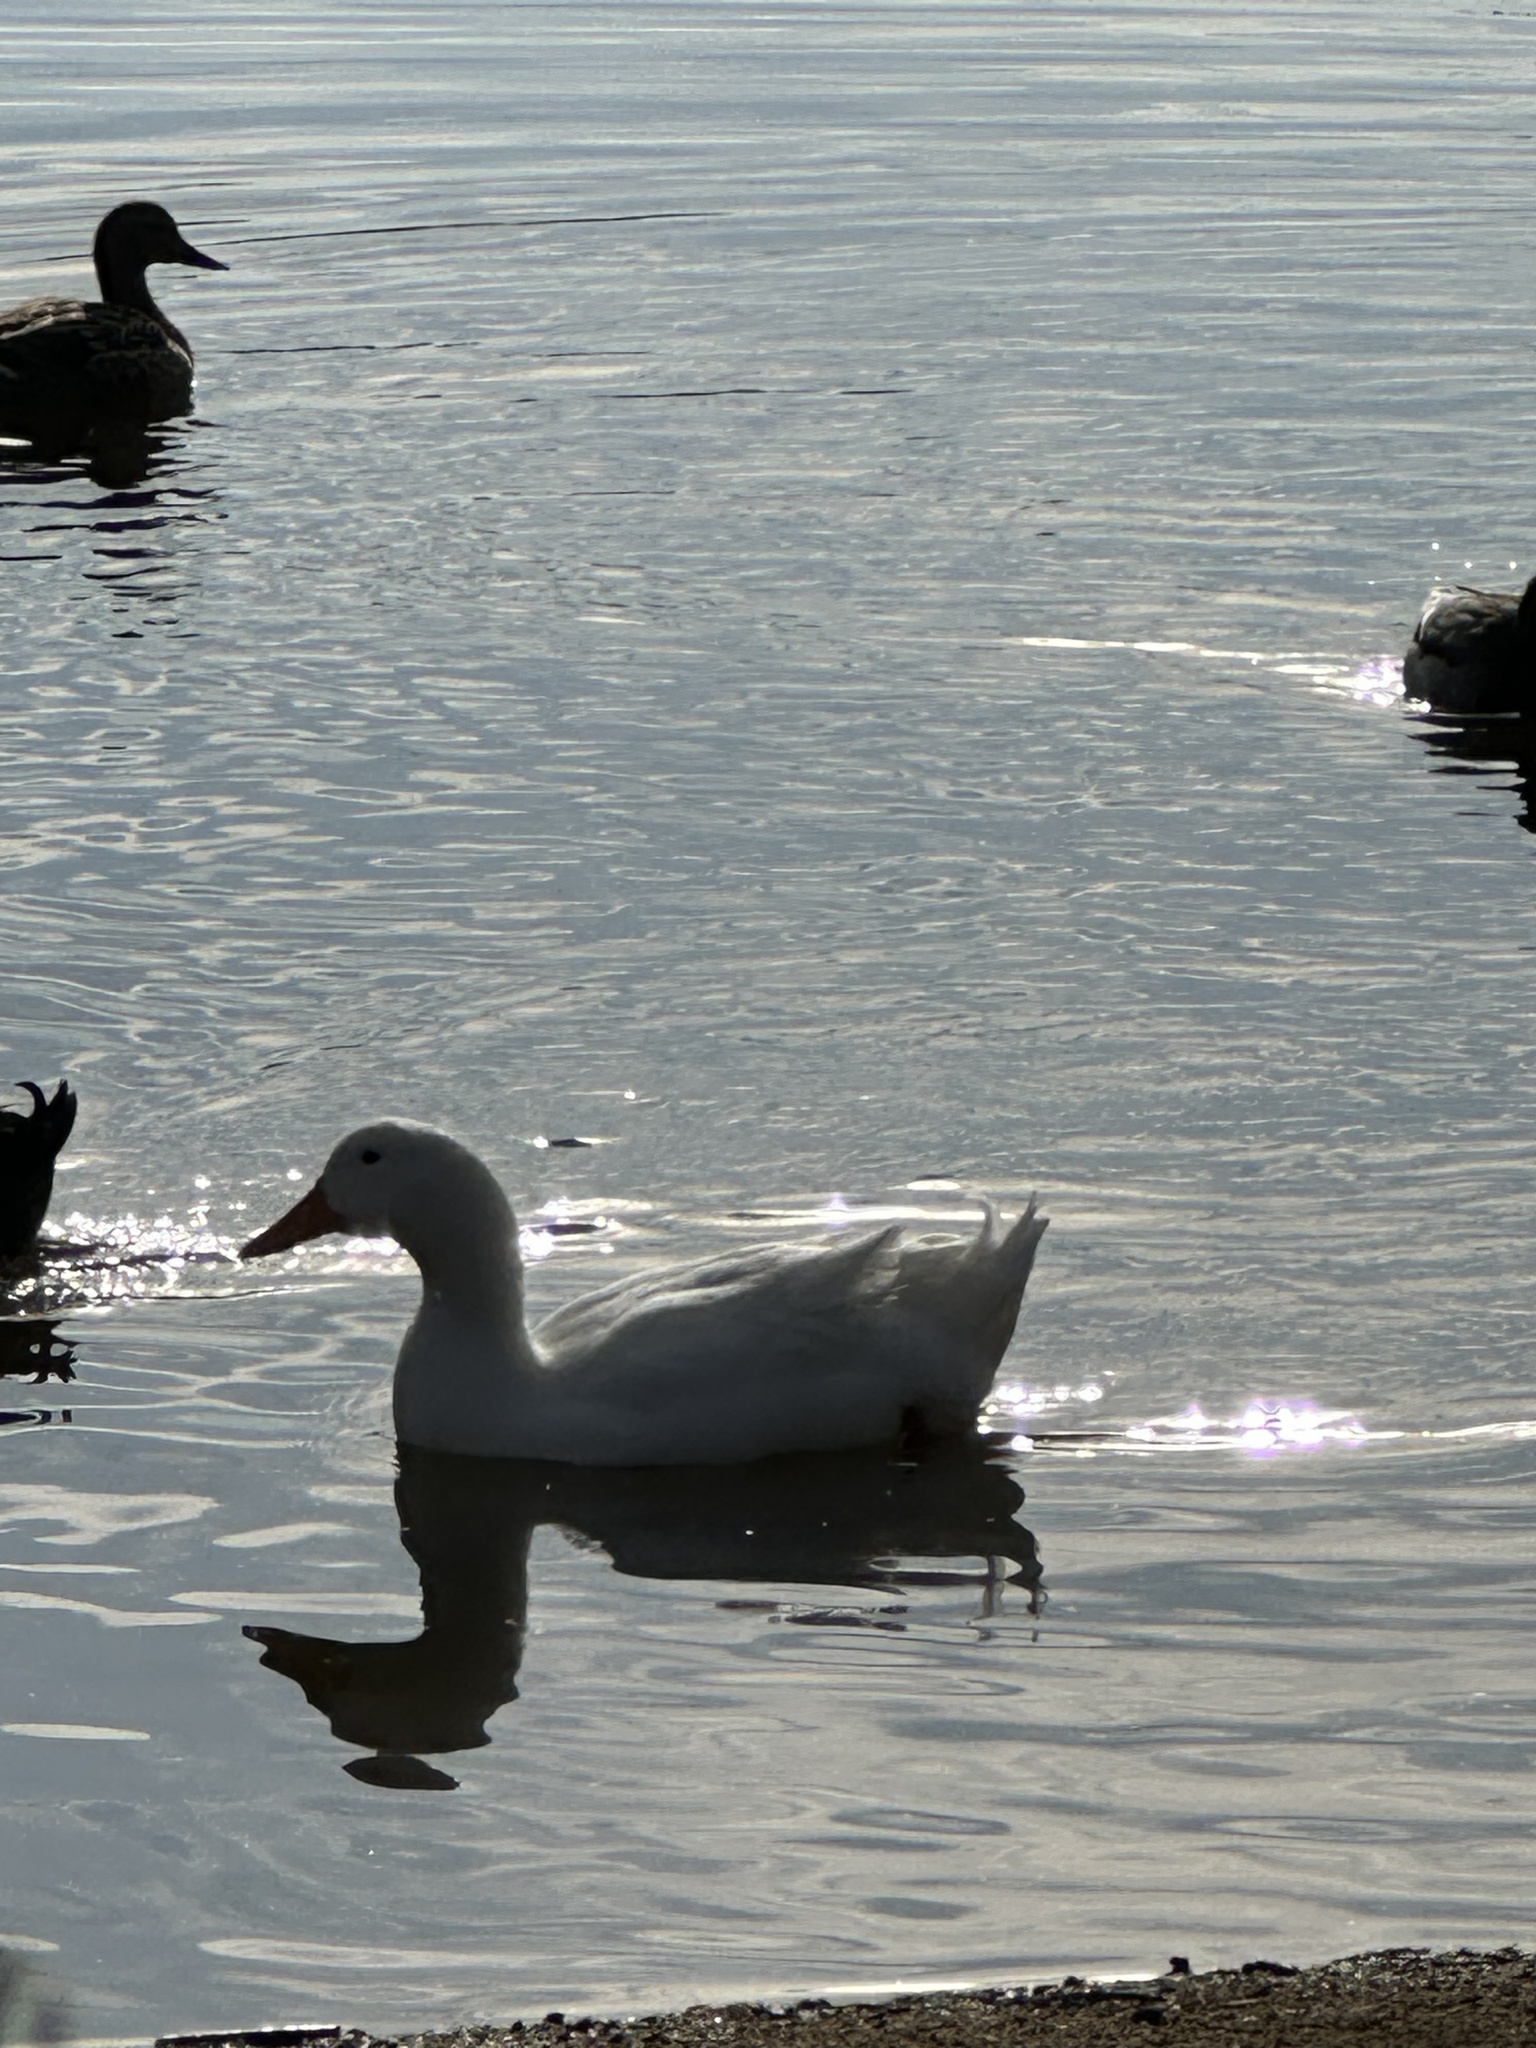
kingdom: Animalia
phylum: Chordata
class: Aves
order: Anseriformes
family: Anatidae
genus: Anas
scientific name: Anas platyrhynchos
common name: Mallard
